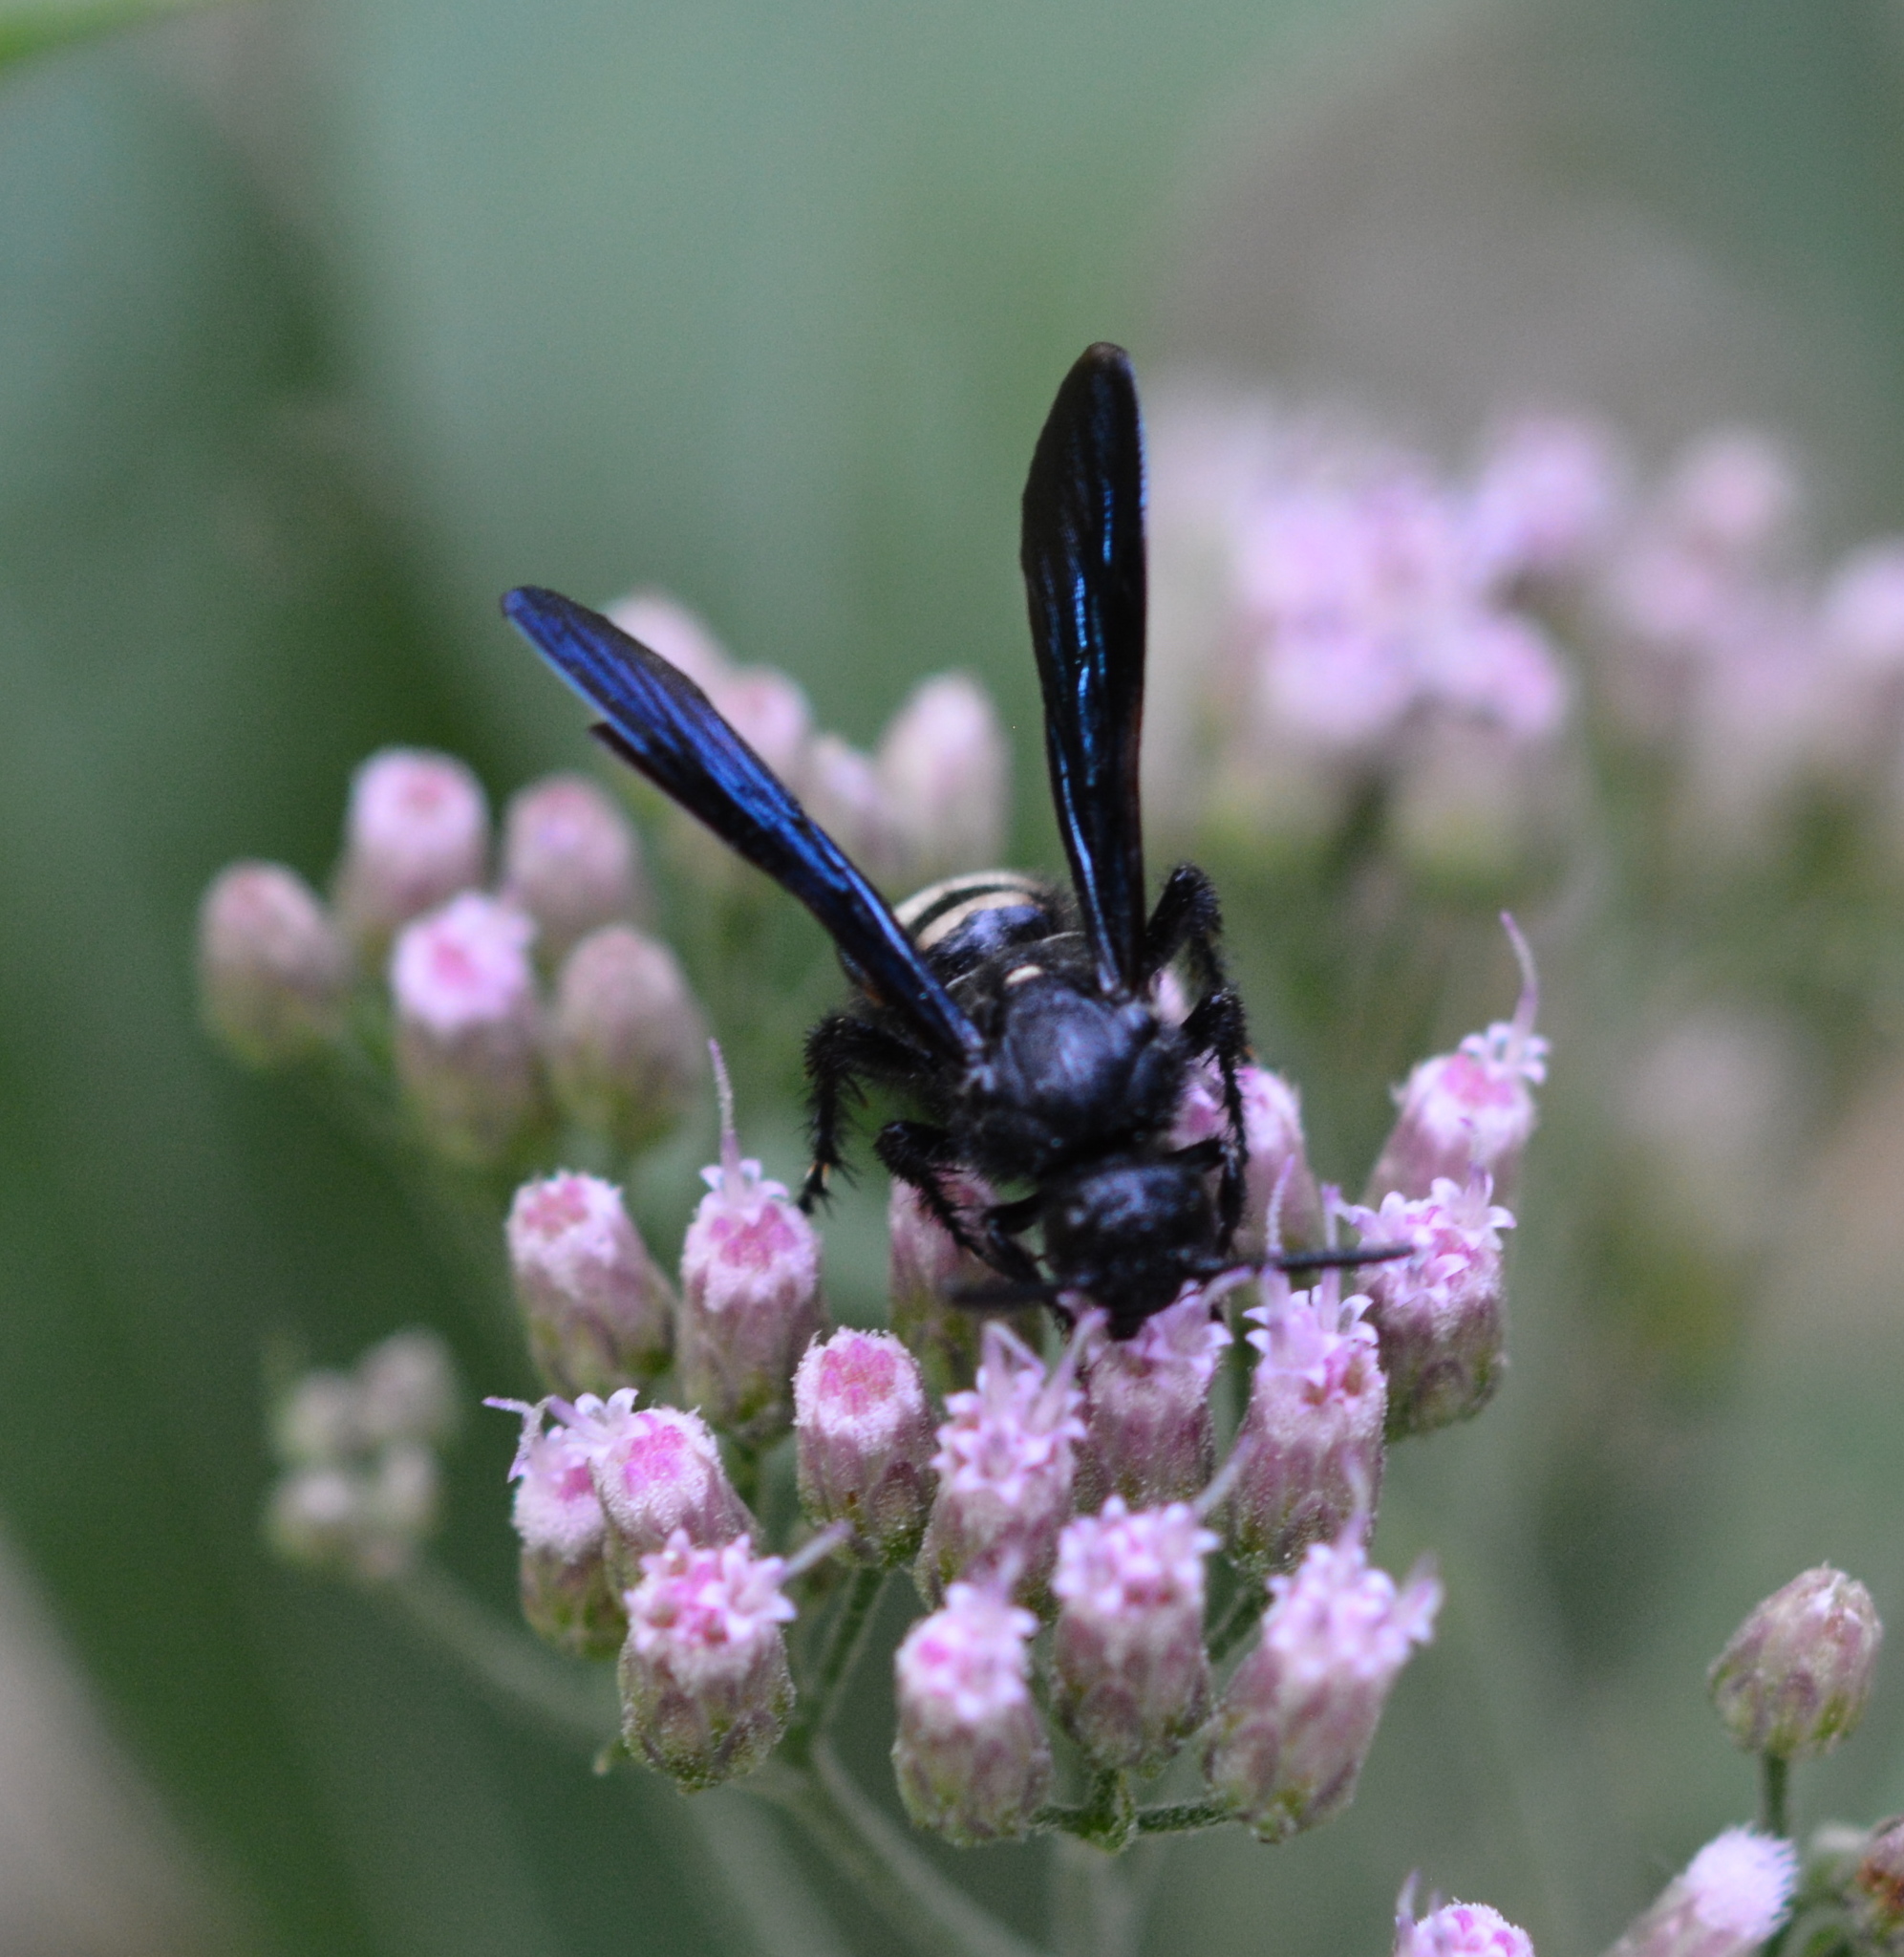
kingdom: Animalia
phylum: Arthropoda
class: Insecta
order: Hymenoptera
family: Scoliidae
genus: Scolia
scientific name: Scolia bicincta
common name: Double-banded scoliid wasp
